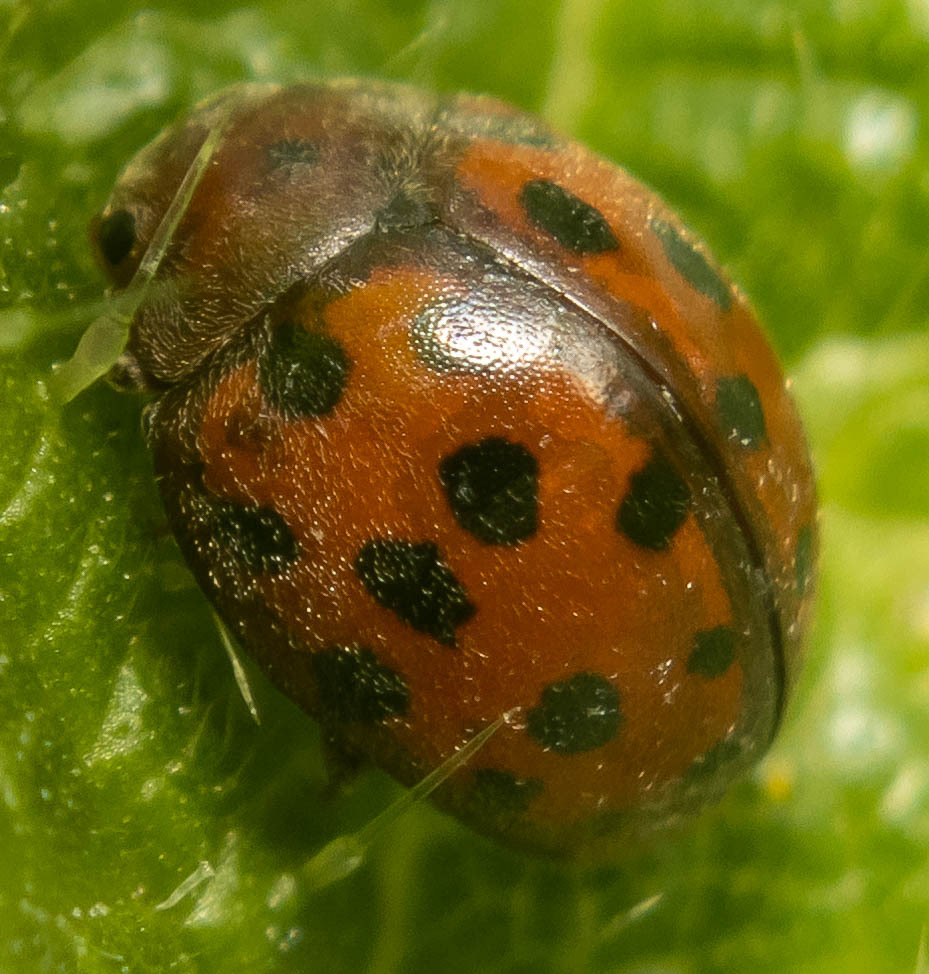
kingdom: Animalia
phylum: Arthropoda
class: Insecta
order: Coleoptera
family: Coccinellidae
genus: Subcoccinella
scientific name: Subcoccinella vigintiquatuorpunctata
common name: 24-spot ladybird
